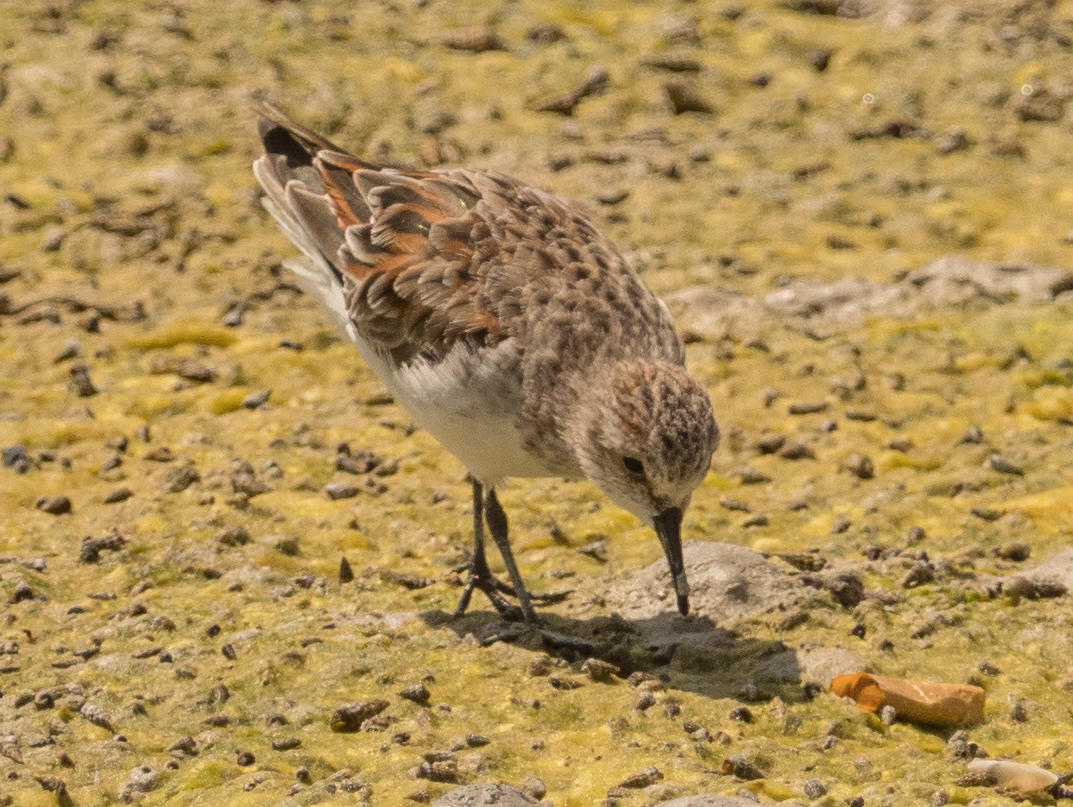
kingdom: Animalia
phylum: Chordata
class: Aves
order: Charadriiformes
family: Scolopacidae
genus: Calidris
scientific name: Calidris minuta
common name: Little stint
